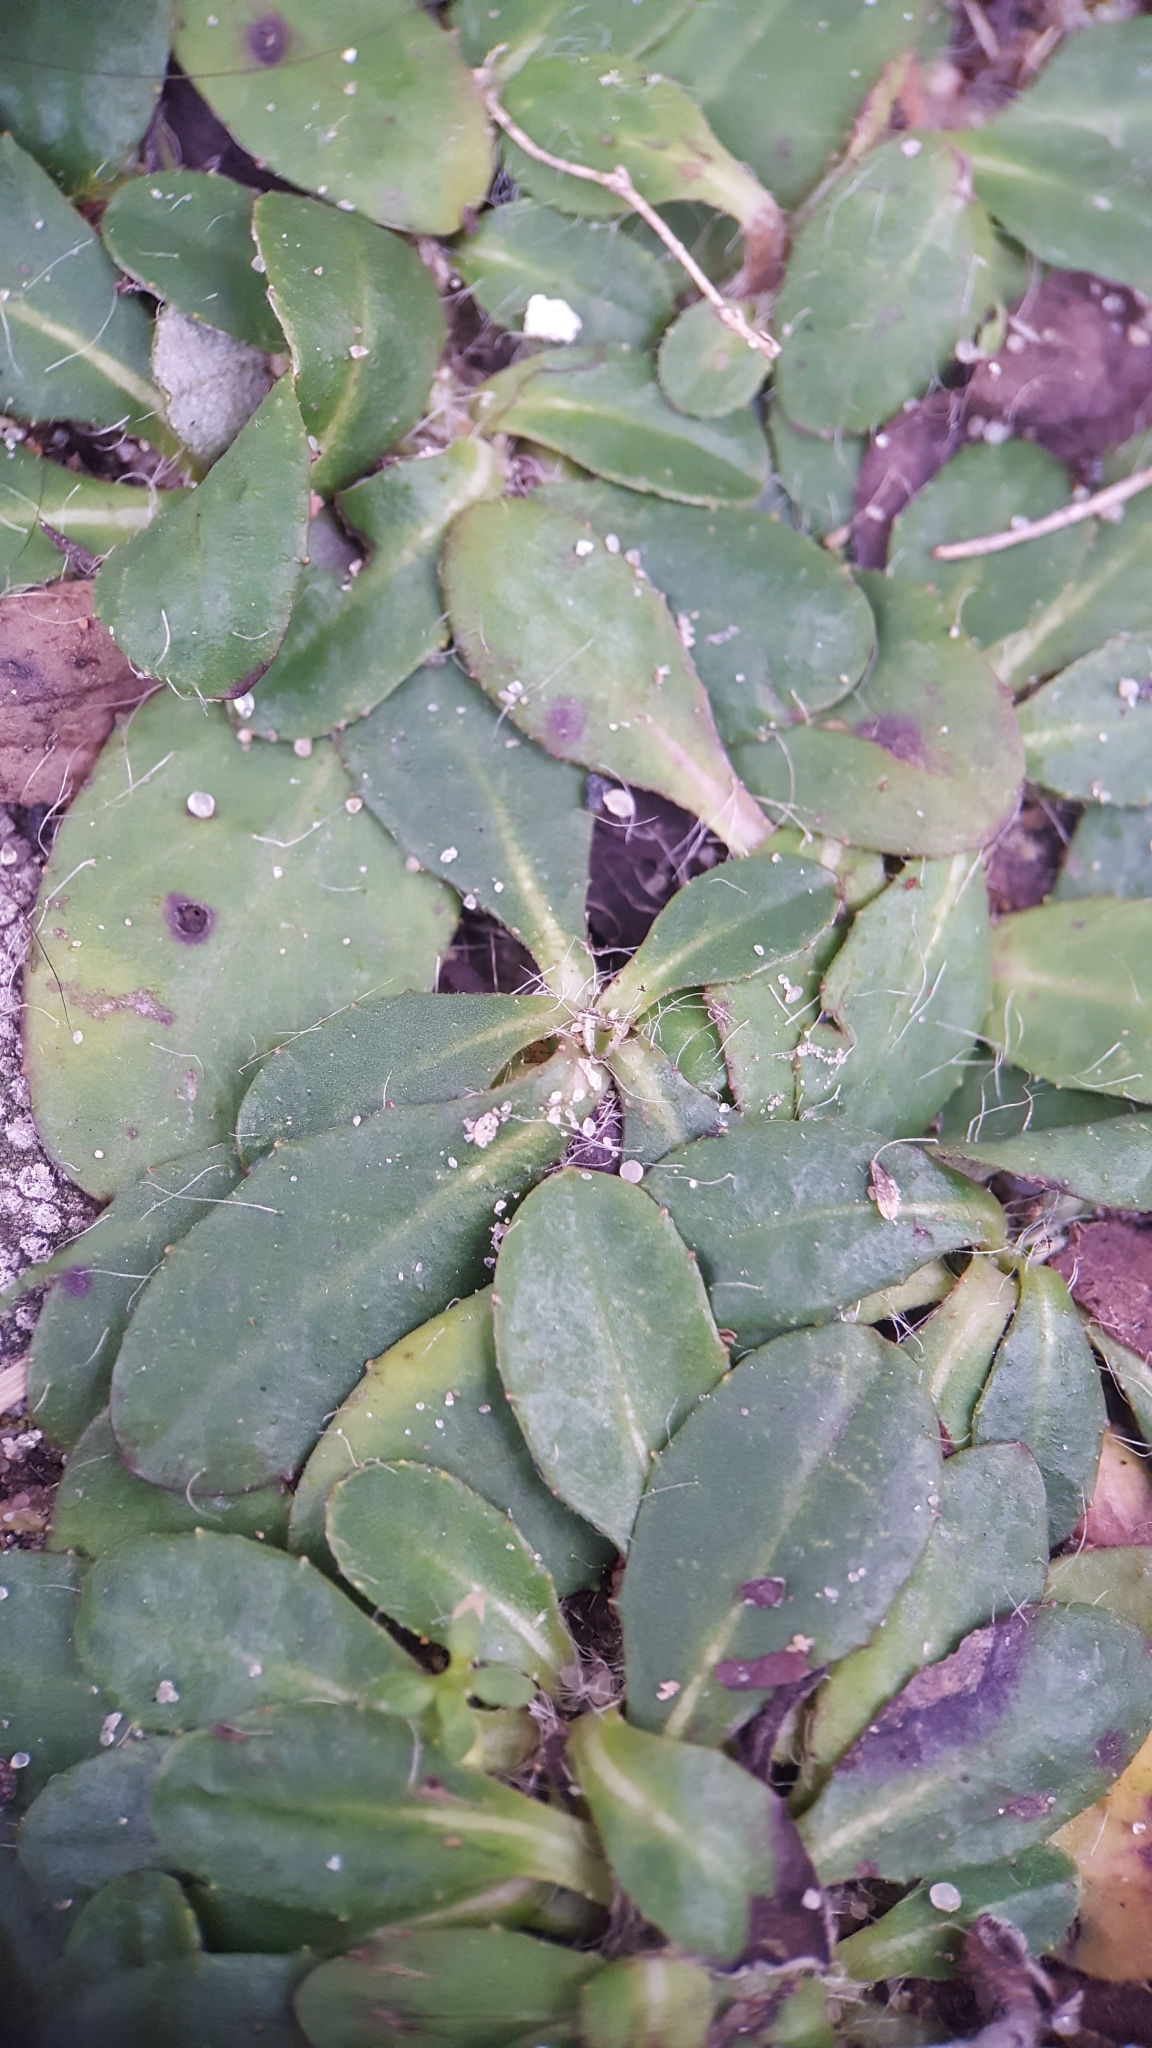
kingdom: Plantae
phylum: Tracheophyta
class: Magnoliopsida
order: Asterales
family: Asteraceae
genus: Pilosella
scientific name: Pilosella officinarum
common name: Mouse-ear hawkweed
